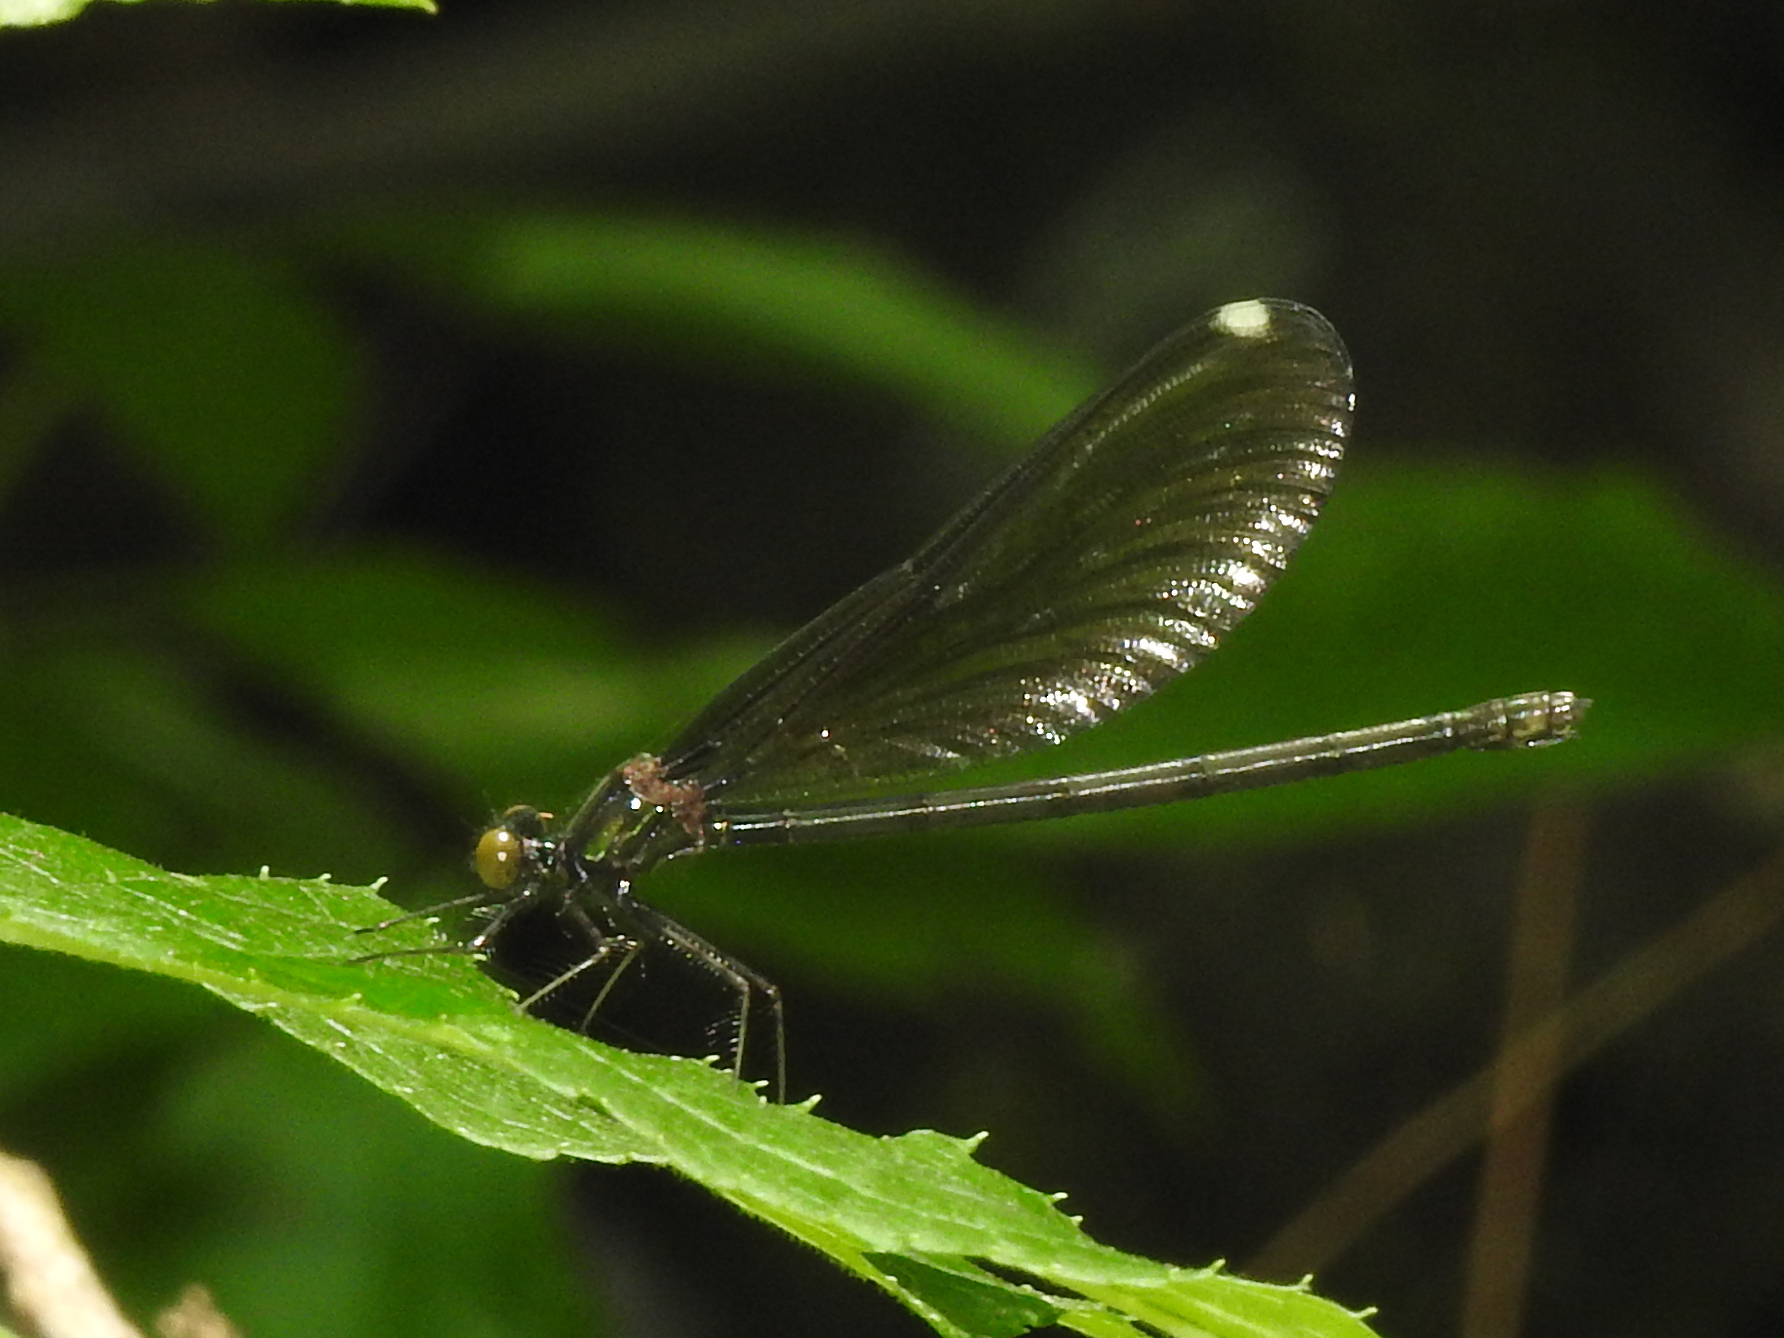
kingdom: Animalia
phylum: Arthropoda
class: Insecta
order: Odonata
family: Calopterygidae
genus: Calopteryx
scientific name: Calopteryx maculata
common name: Ebony jewelwing
